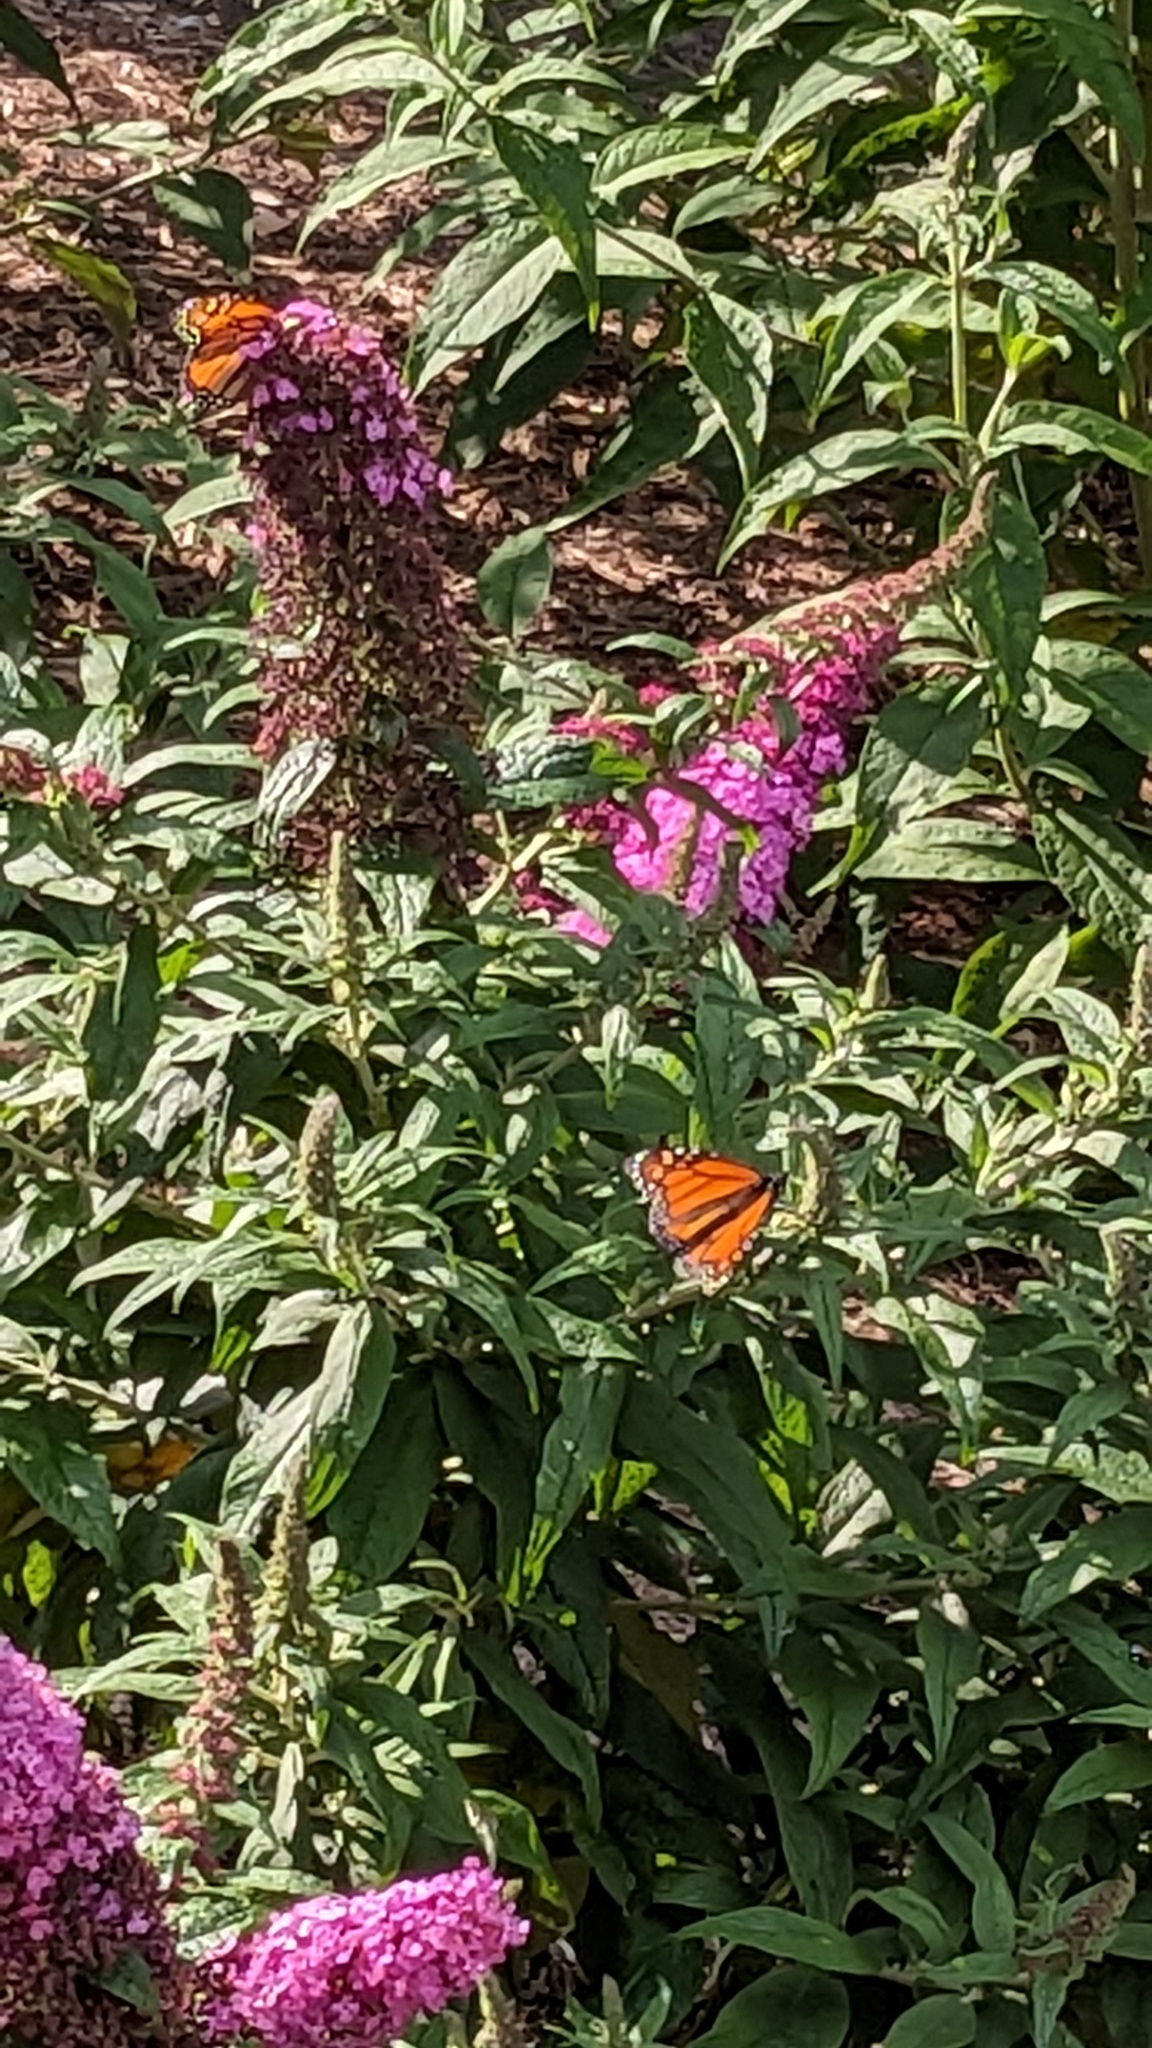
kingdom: Animalia
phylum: Arthropoda
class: Insecta
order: Lepidoptera
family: Nymphalidae
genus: Danaus
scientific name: Danaus plexippus
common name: Monarch
